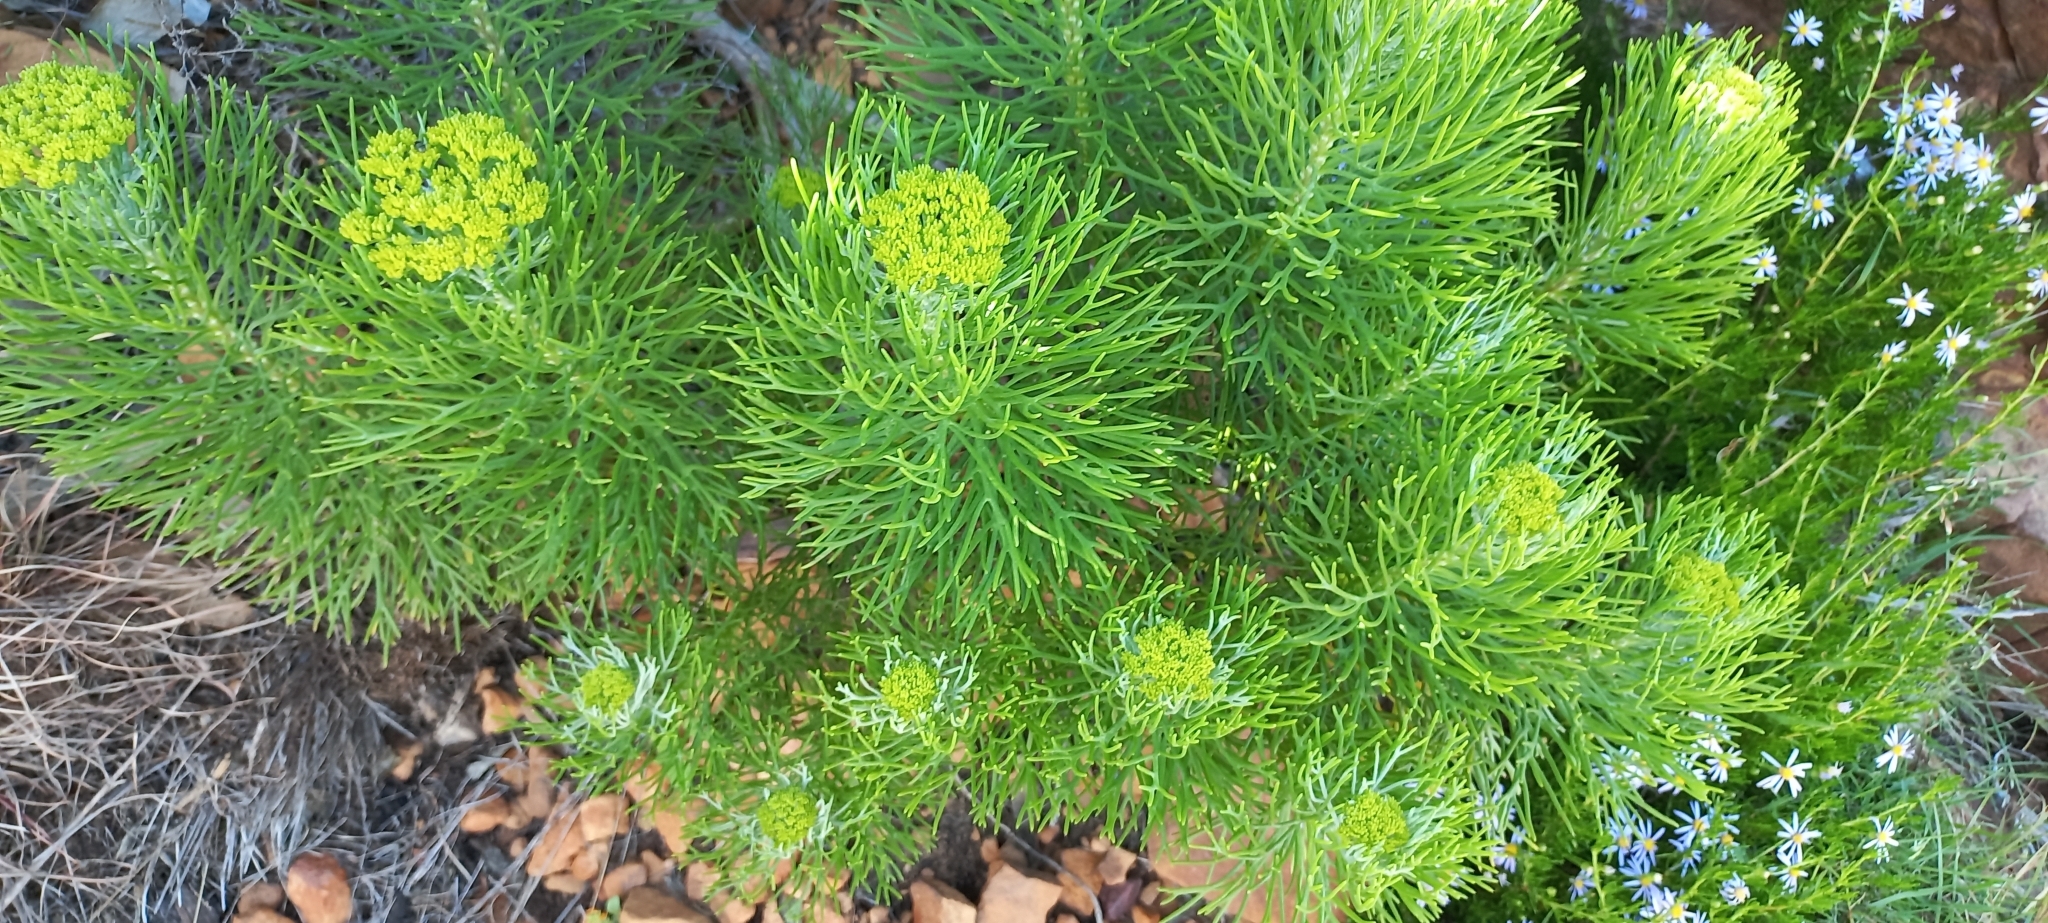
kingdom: Plantae
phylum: Tracheophyta
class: Magnoliopsida
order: Asterales
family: Asteraceae
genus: Hymenolepis
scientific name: Hymenolepis crithmifolia
